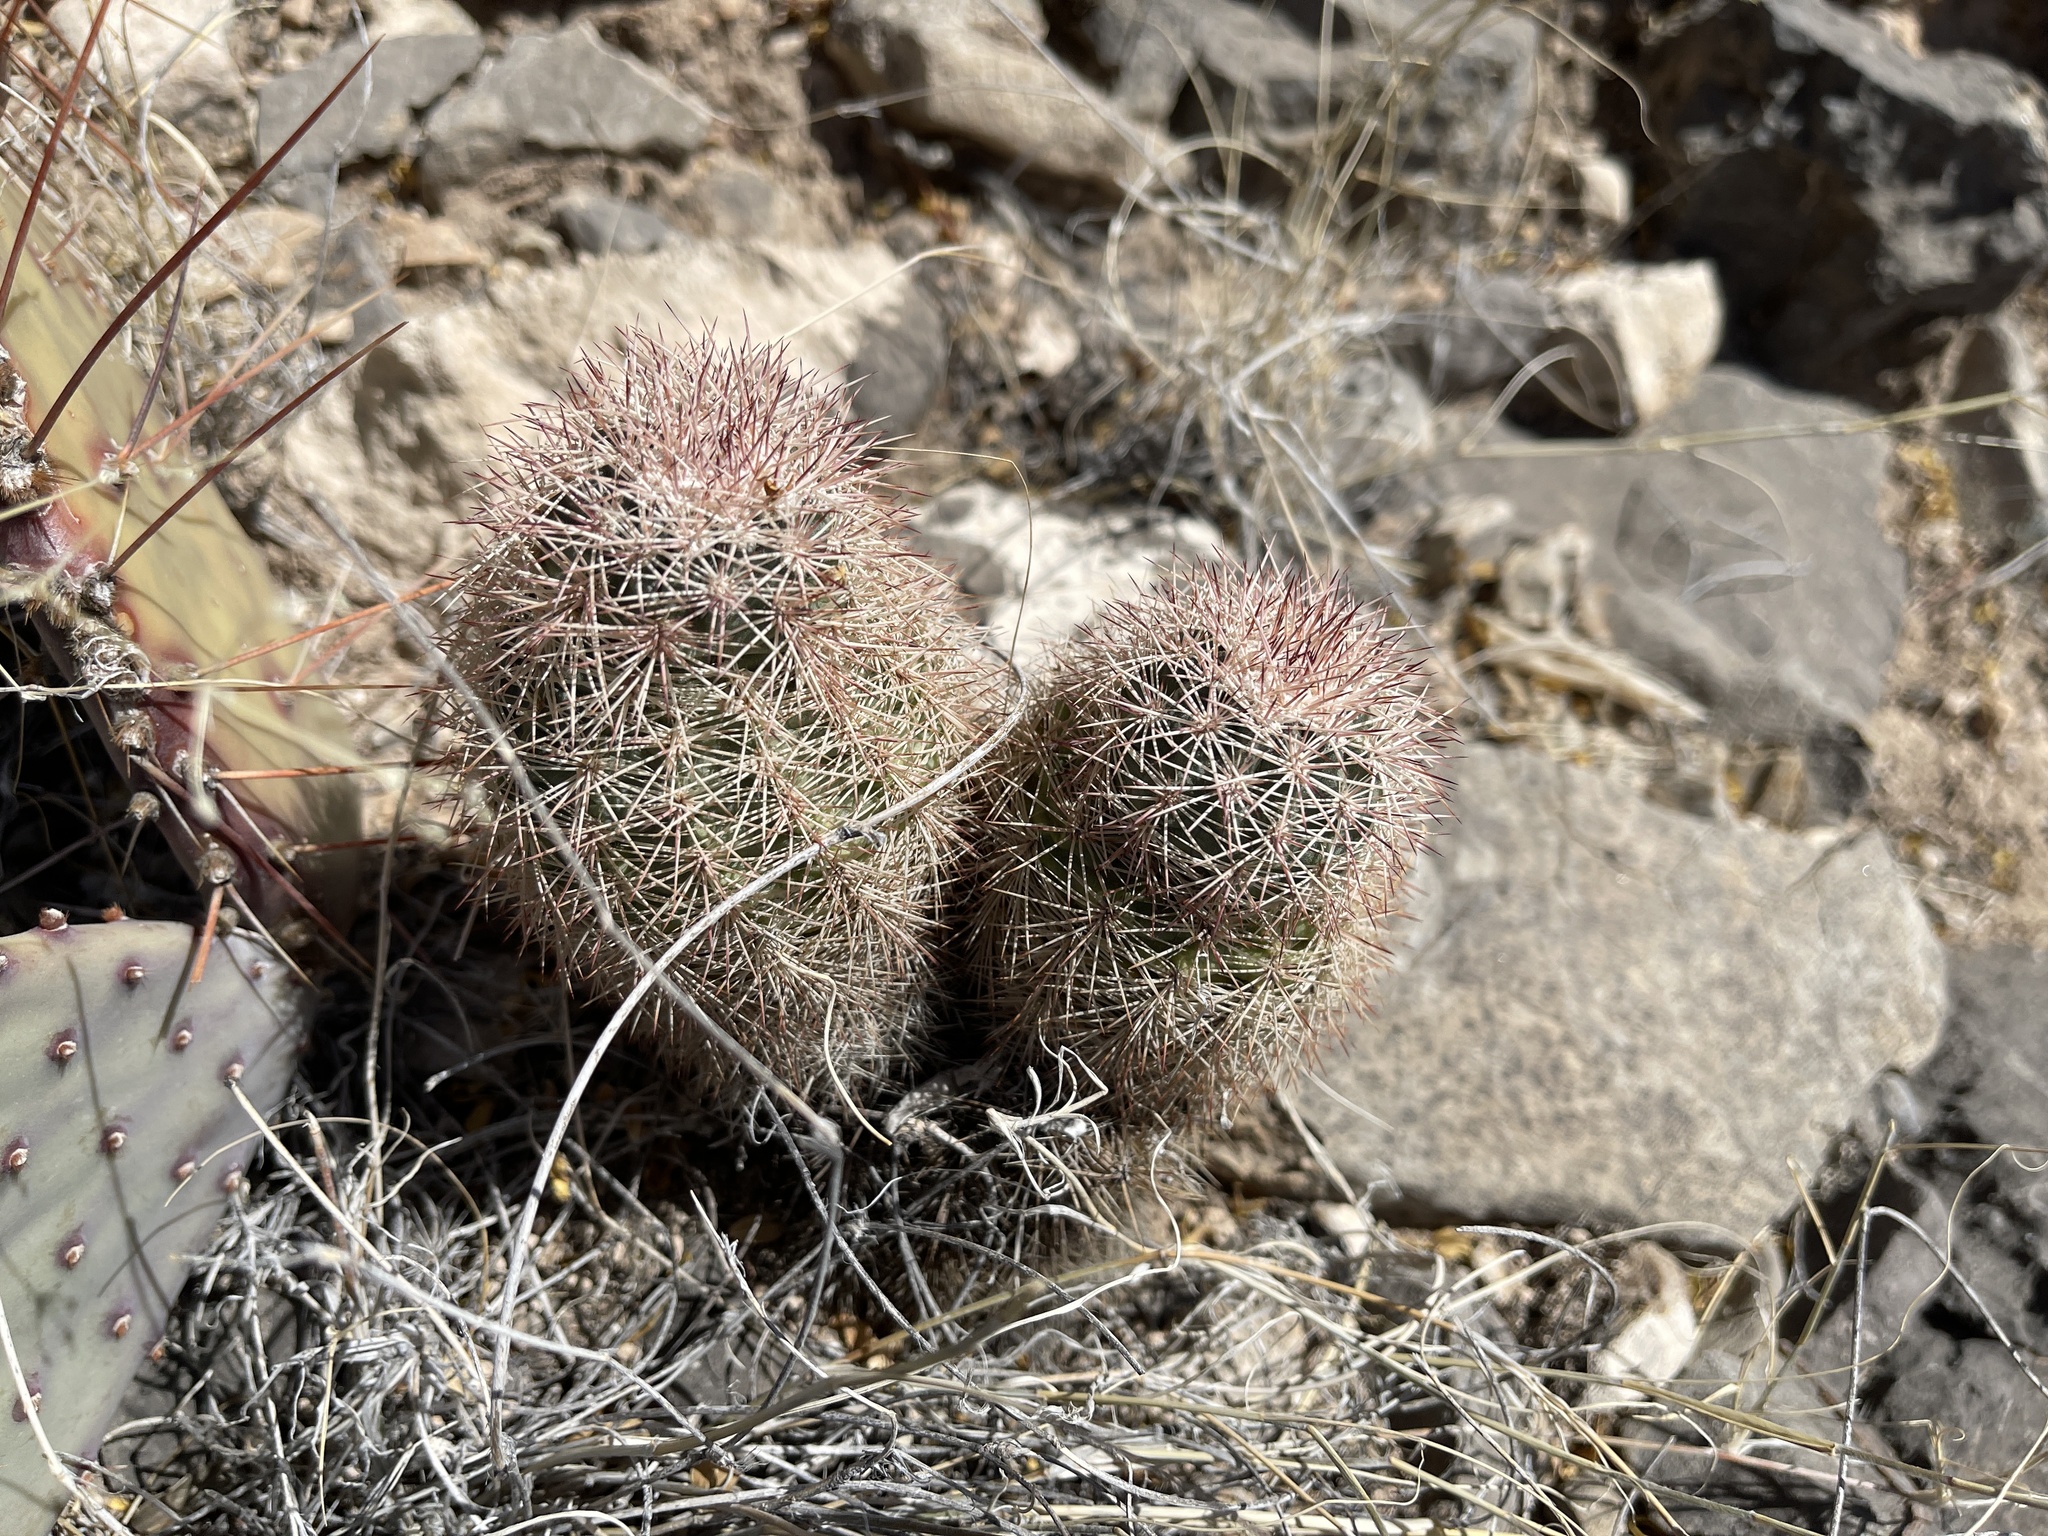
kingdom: Plantae
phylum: Tracheophyta
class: Magnoliopsida
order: Caryophyllales
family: Cactaceae
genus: Echinocereus
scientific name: Echinocereus dasyacanthus
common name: Spiny hedgehog cactus
